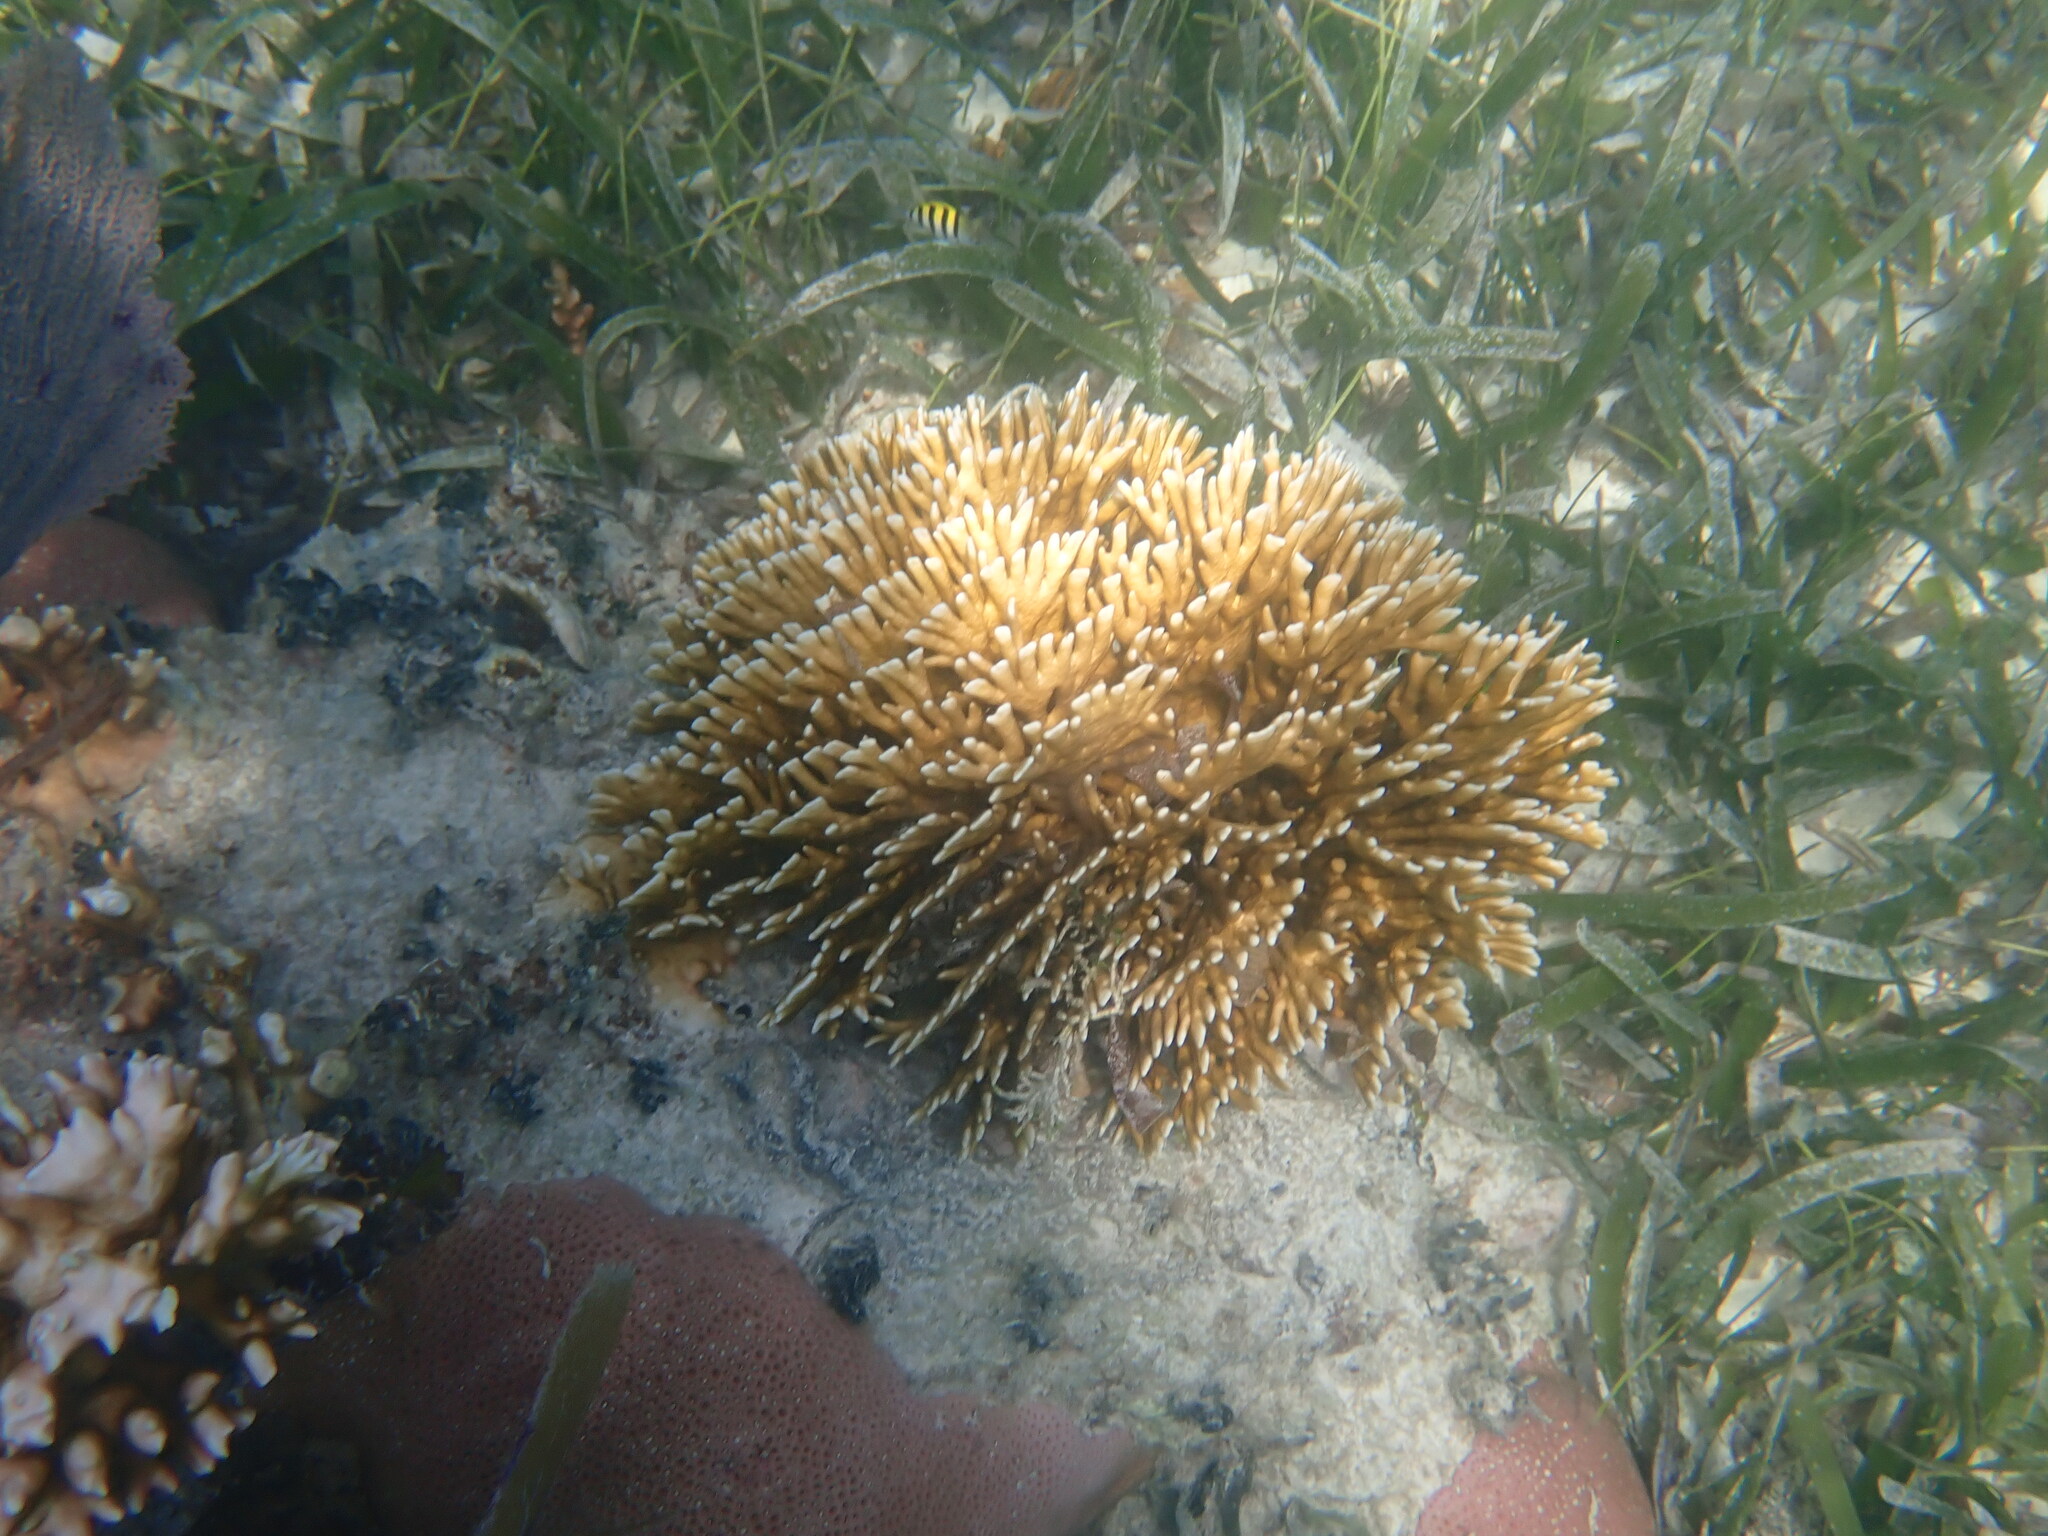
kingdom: Animalia
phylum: Cnidaria
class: Hydrozoa
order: Anthoathecata
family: Milleporidae
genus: Millepora
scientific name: Millepora alcicornis
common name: Branching fire coral
